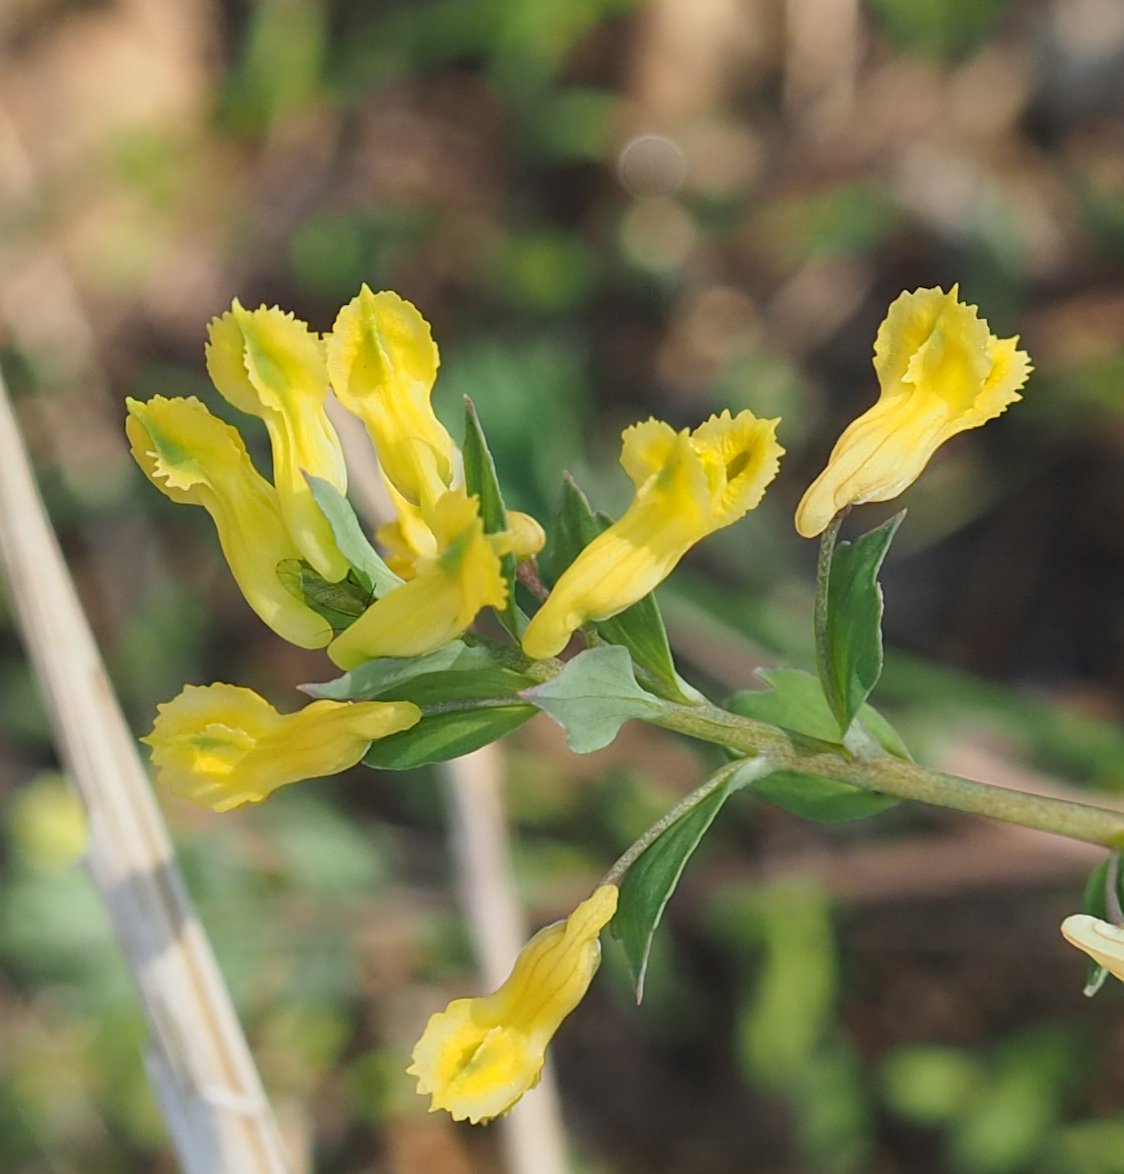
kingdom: Plantae
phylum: Tracheophyta
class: Magnoliopsida
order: Ranunculales
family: Papaveraceae
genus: Corydalis
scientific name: Corydalis flavula
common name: Yellow corydalis
